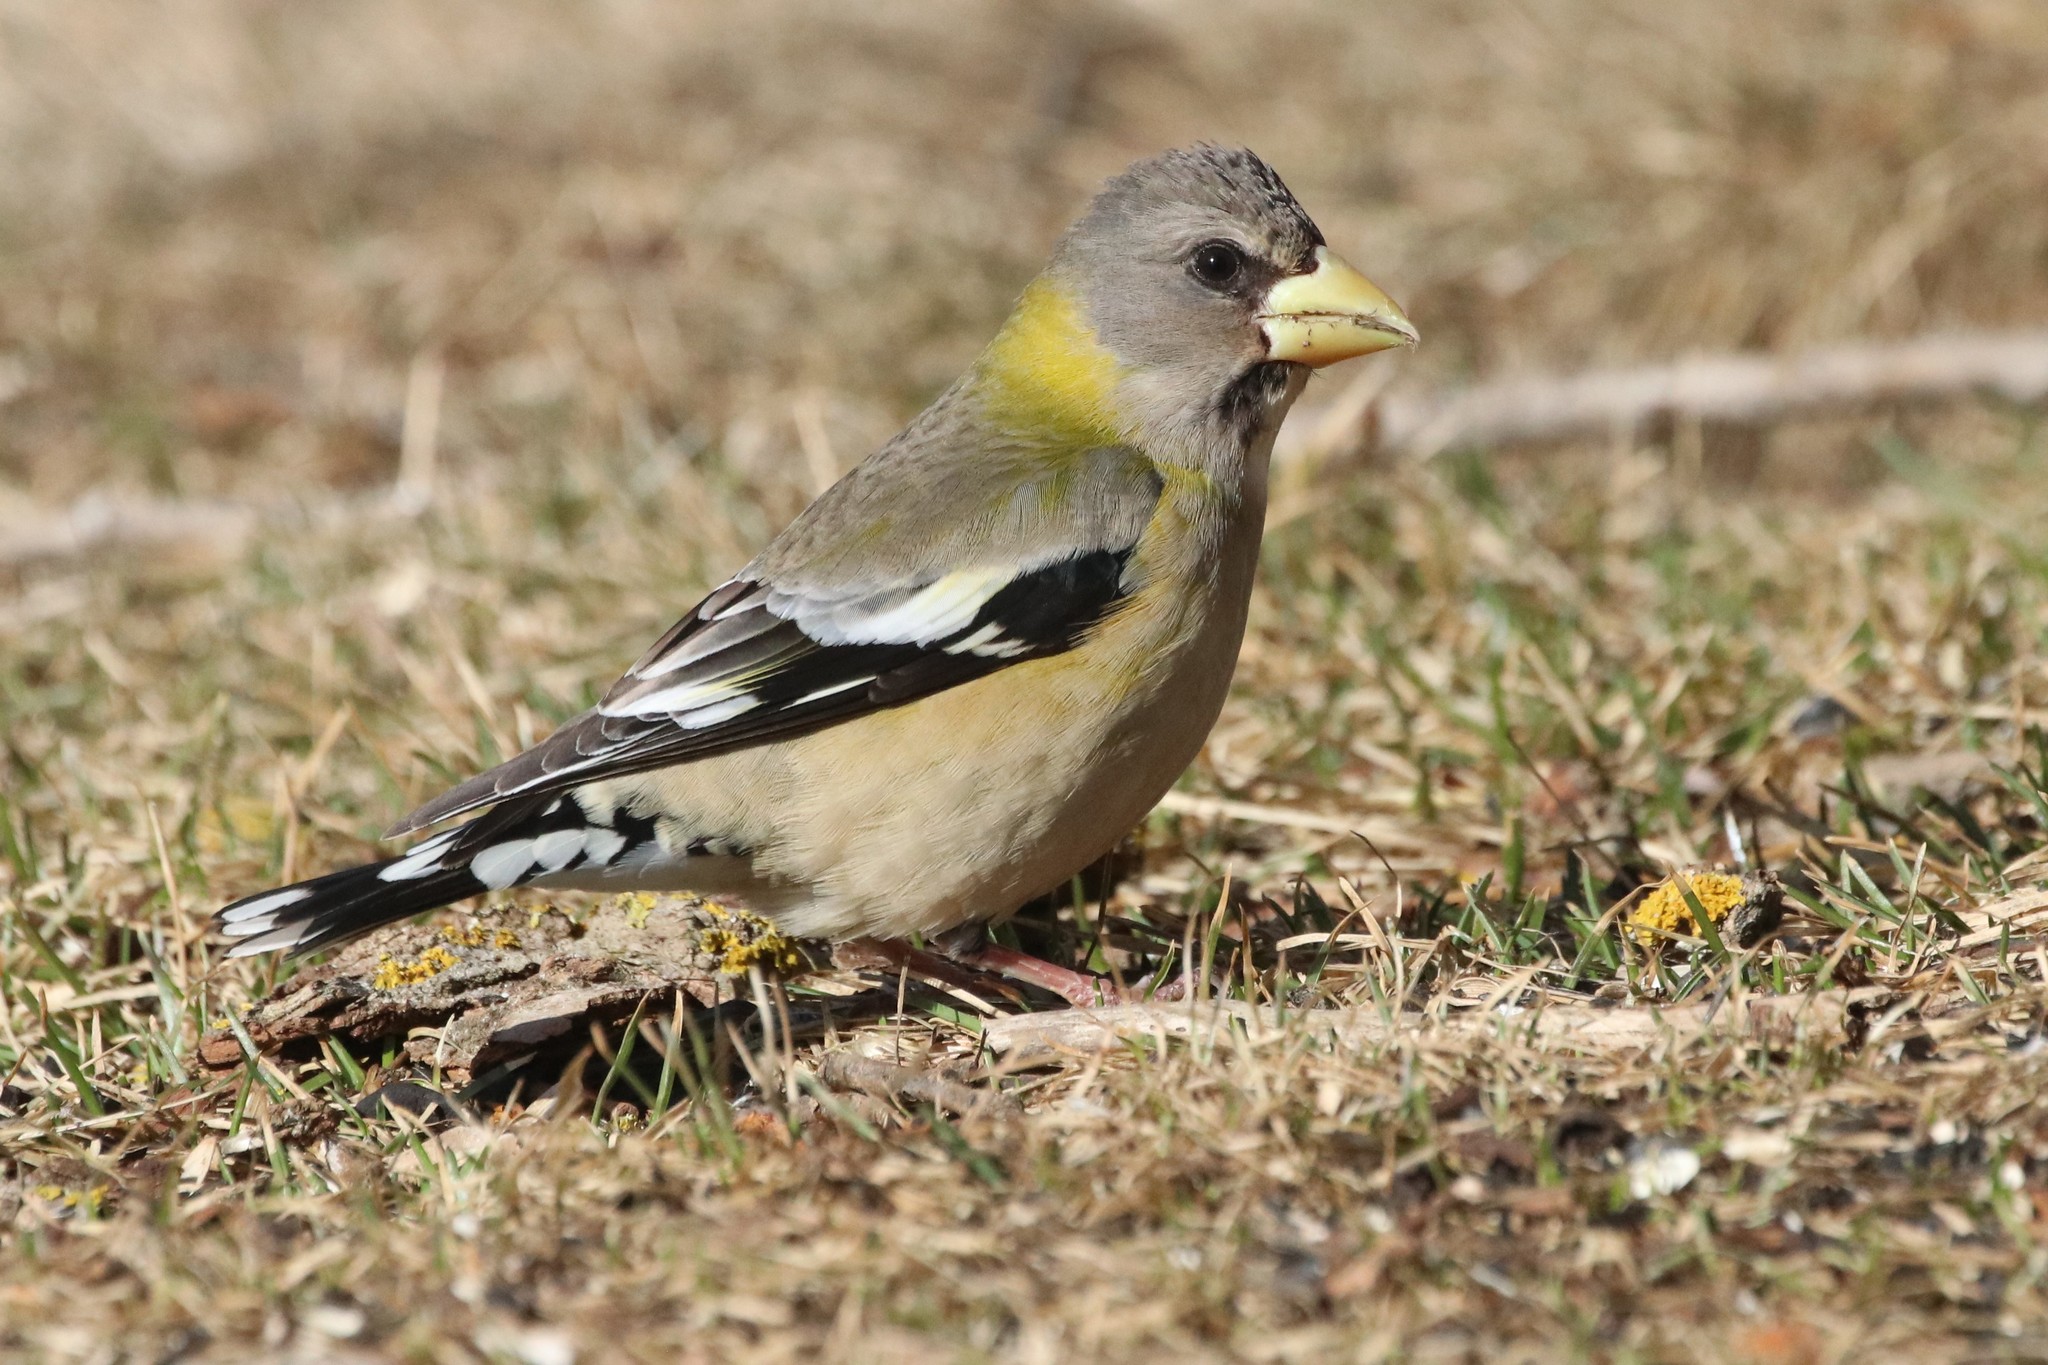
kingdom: Animalia
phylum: Chordata
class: Aves
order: Passeriformes
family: Fringillidae
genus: Hesperiphona
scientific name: Hesperiphona vespertina
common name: Evening grosbeak
